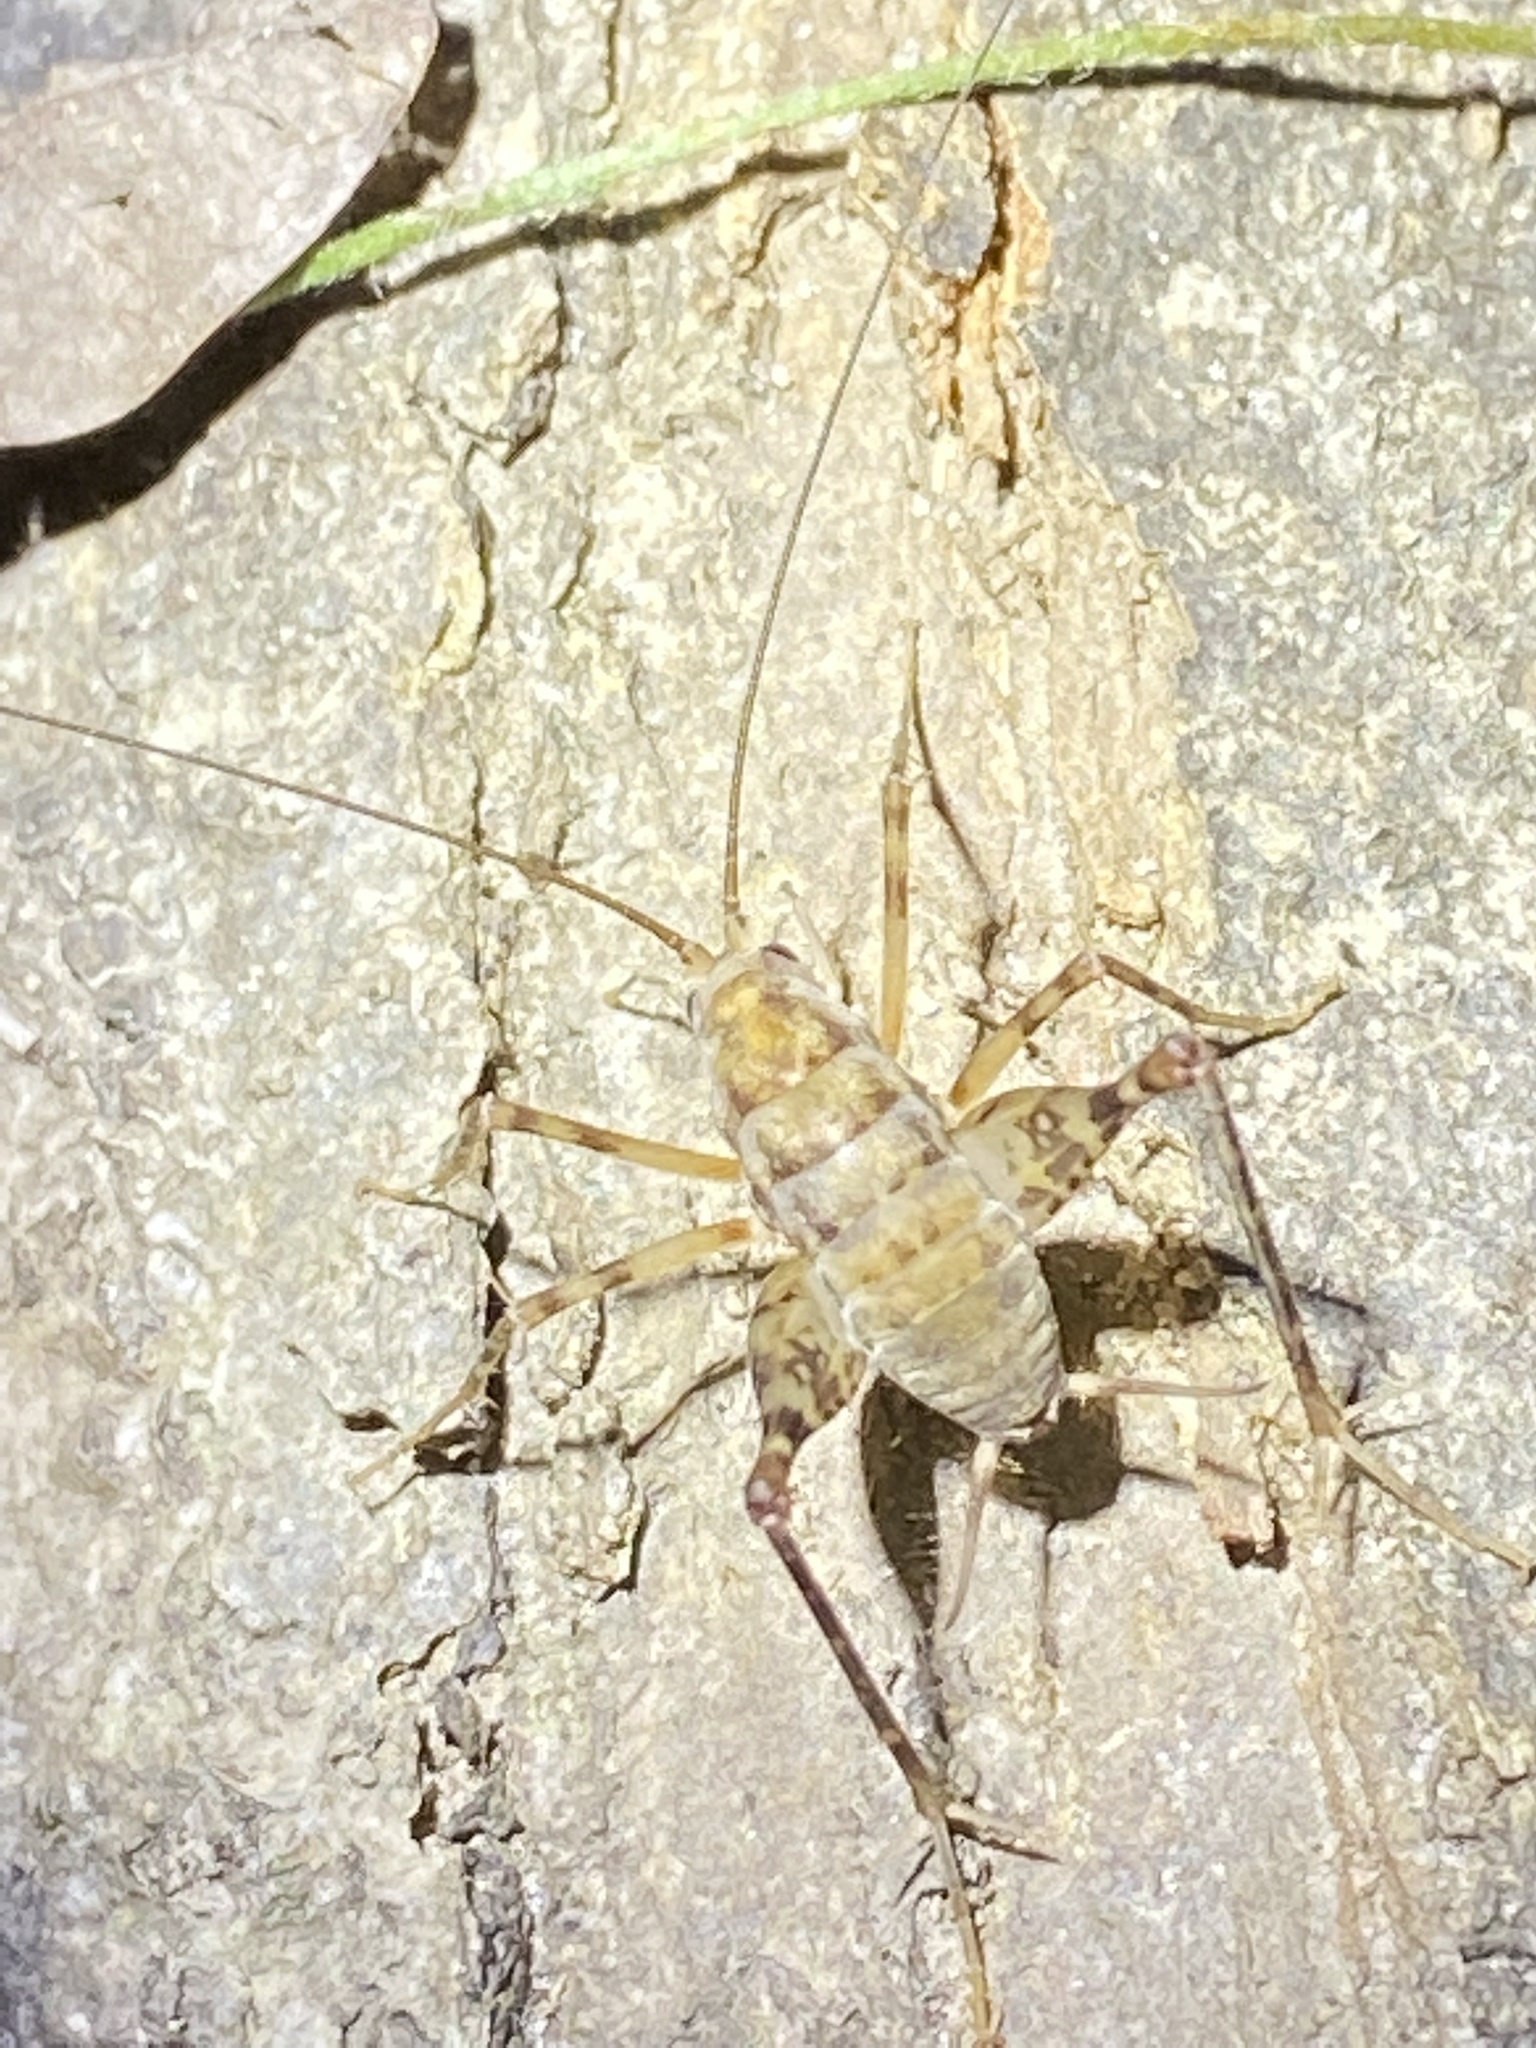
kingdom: Animalia
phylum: Arthropoda
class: Insecta
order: Orthoptera
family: Rhaphidophoridae
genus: Tachycines
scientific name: Tachycines asynamorus
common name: Greenhouse camel cricket
